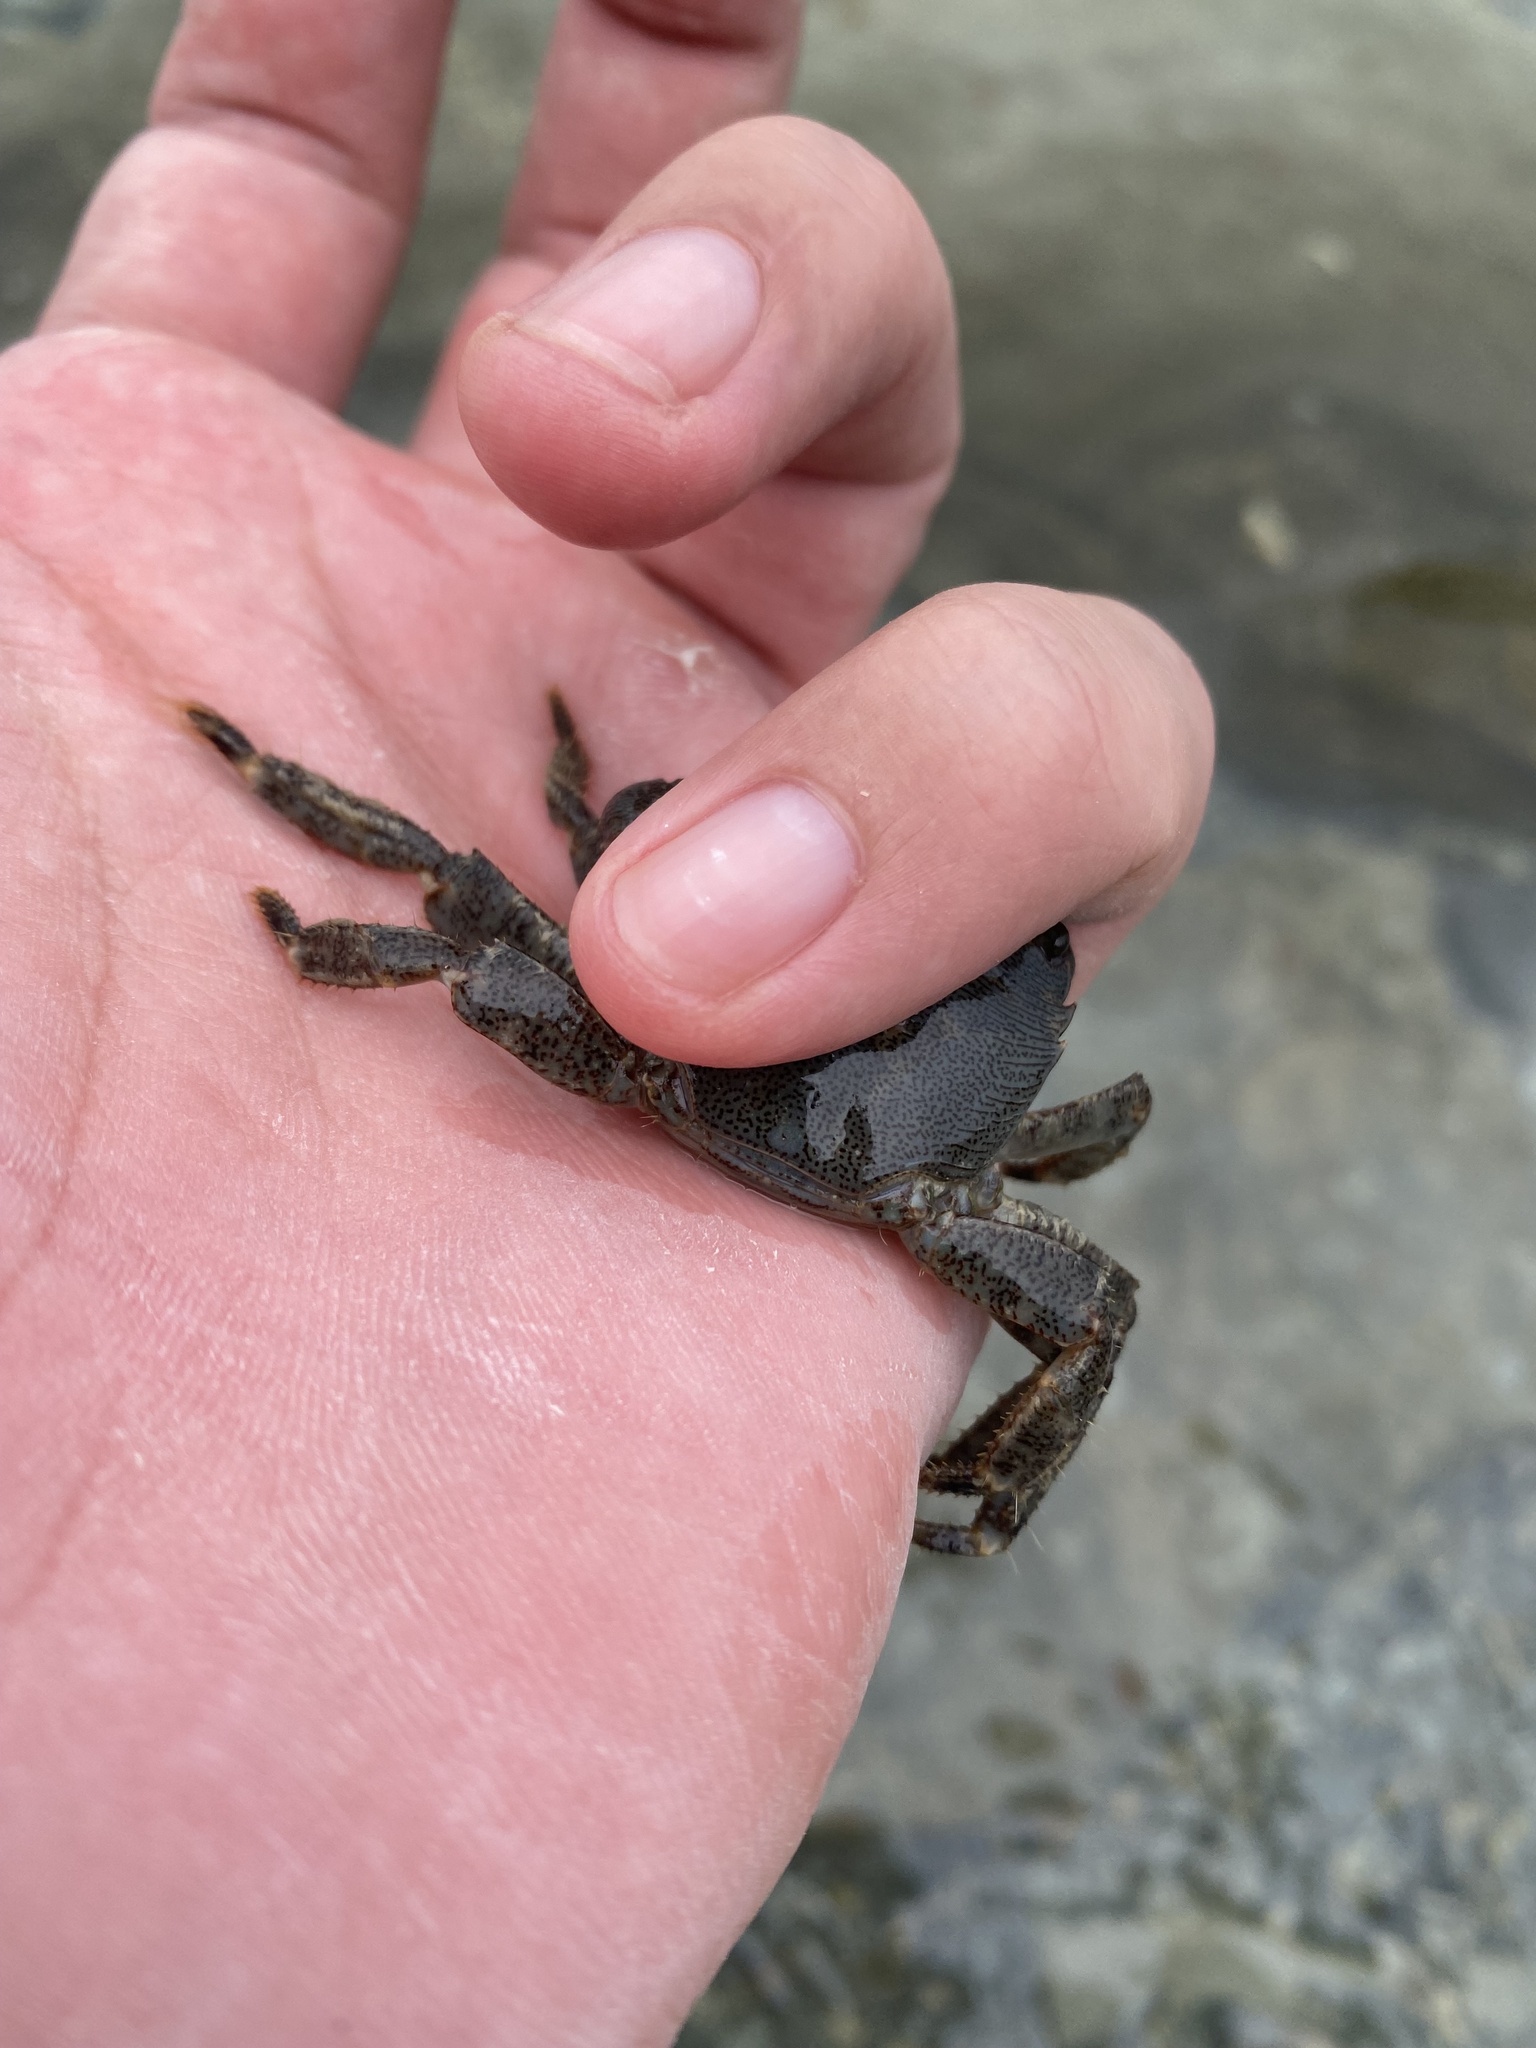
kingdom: Animalia
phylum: Arthropoda
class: Malacostraca
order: Decapoda
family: Grapsidae
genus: Pachygrapsus
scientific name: Pachygrapsus marmoratus
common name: Marbled rock crab
